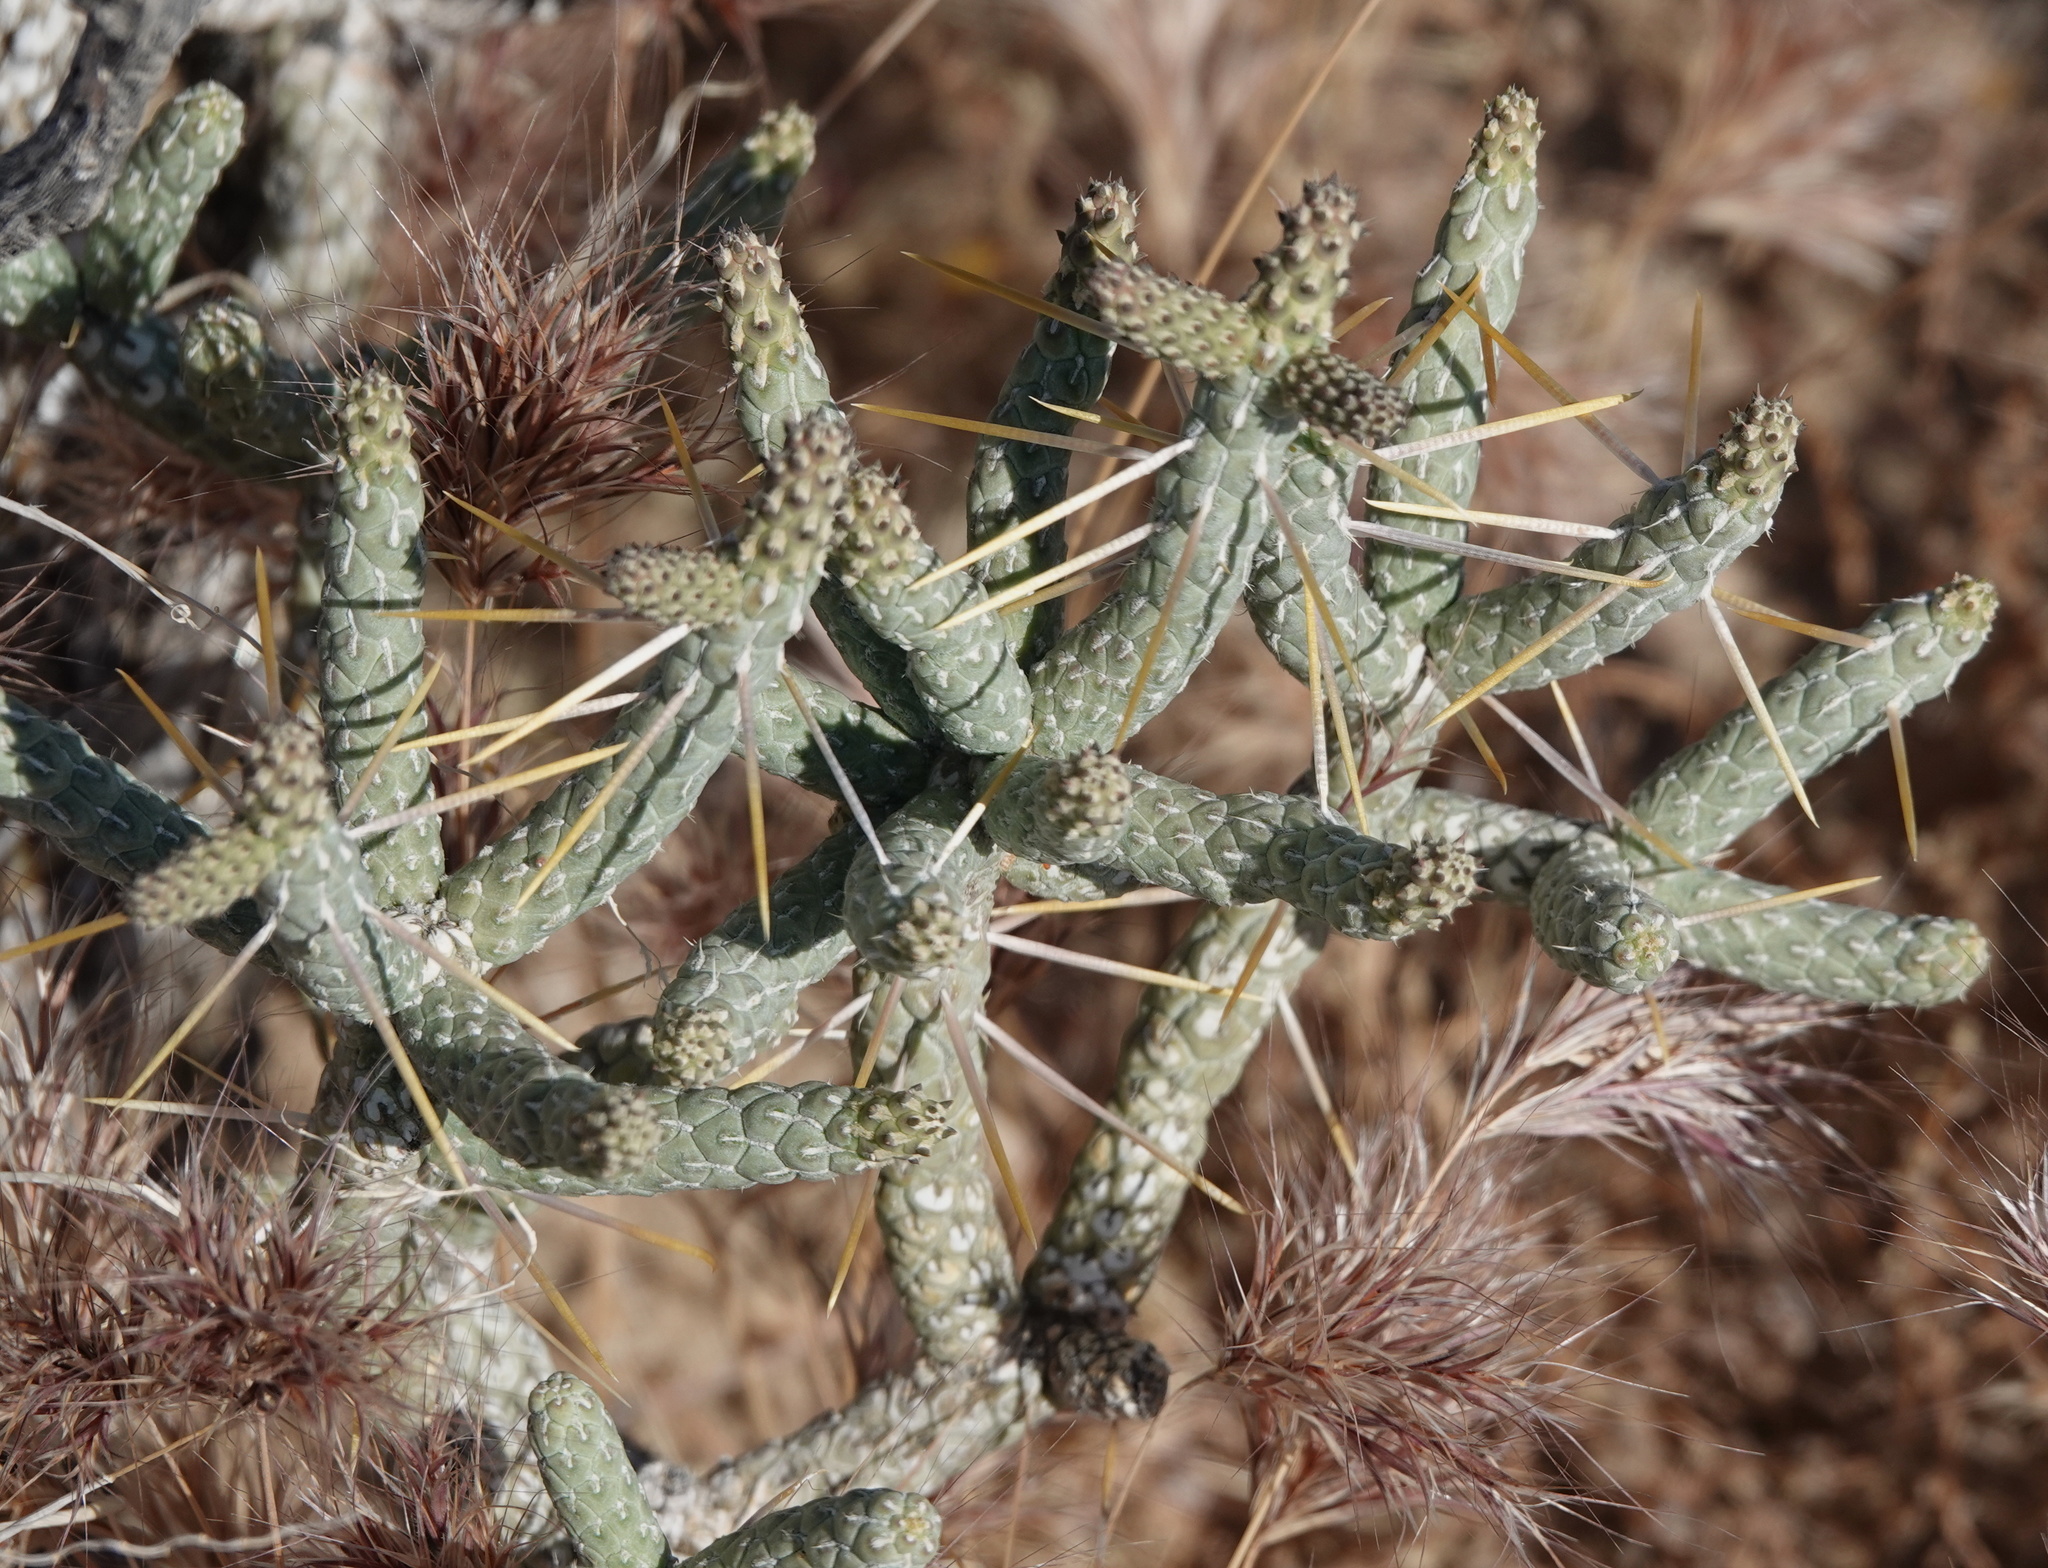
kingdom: Plantae
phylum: Tracheophyta
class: Magnoliopsida
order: Caryophyllales
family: Cactaceae
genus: Cylindropuntia
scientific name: Cylindropuntia ramosissima
